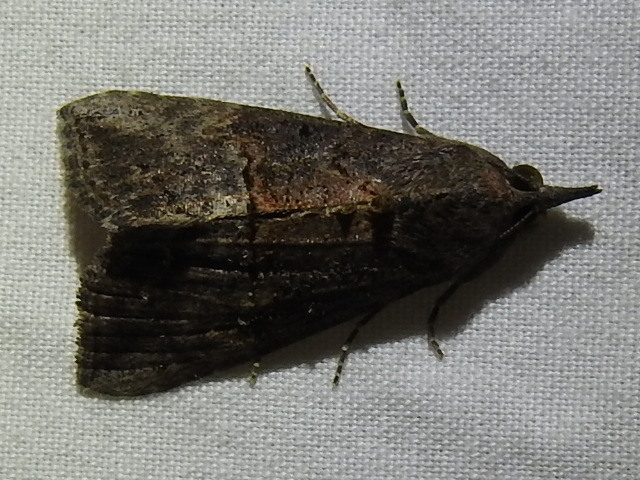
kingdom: Animalia
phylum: Arthropoda
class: Insecta
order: Lepidoptera
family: Erebidae
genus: Hypena
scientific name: Hypena scabra
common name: Green cloverworm
